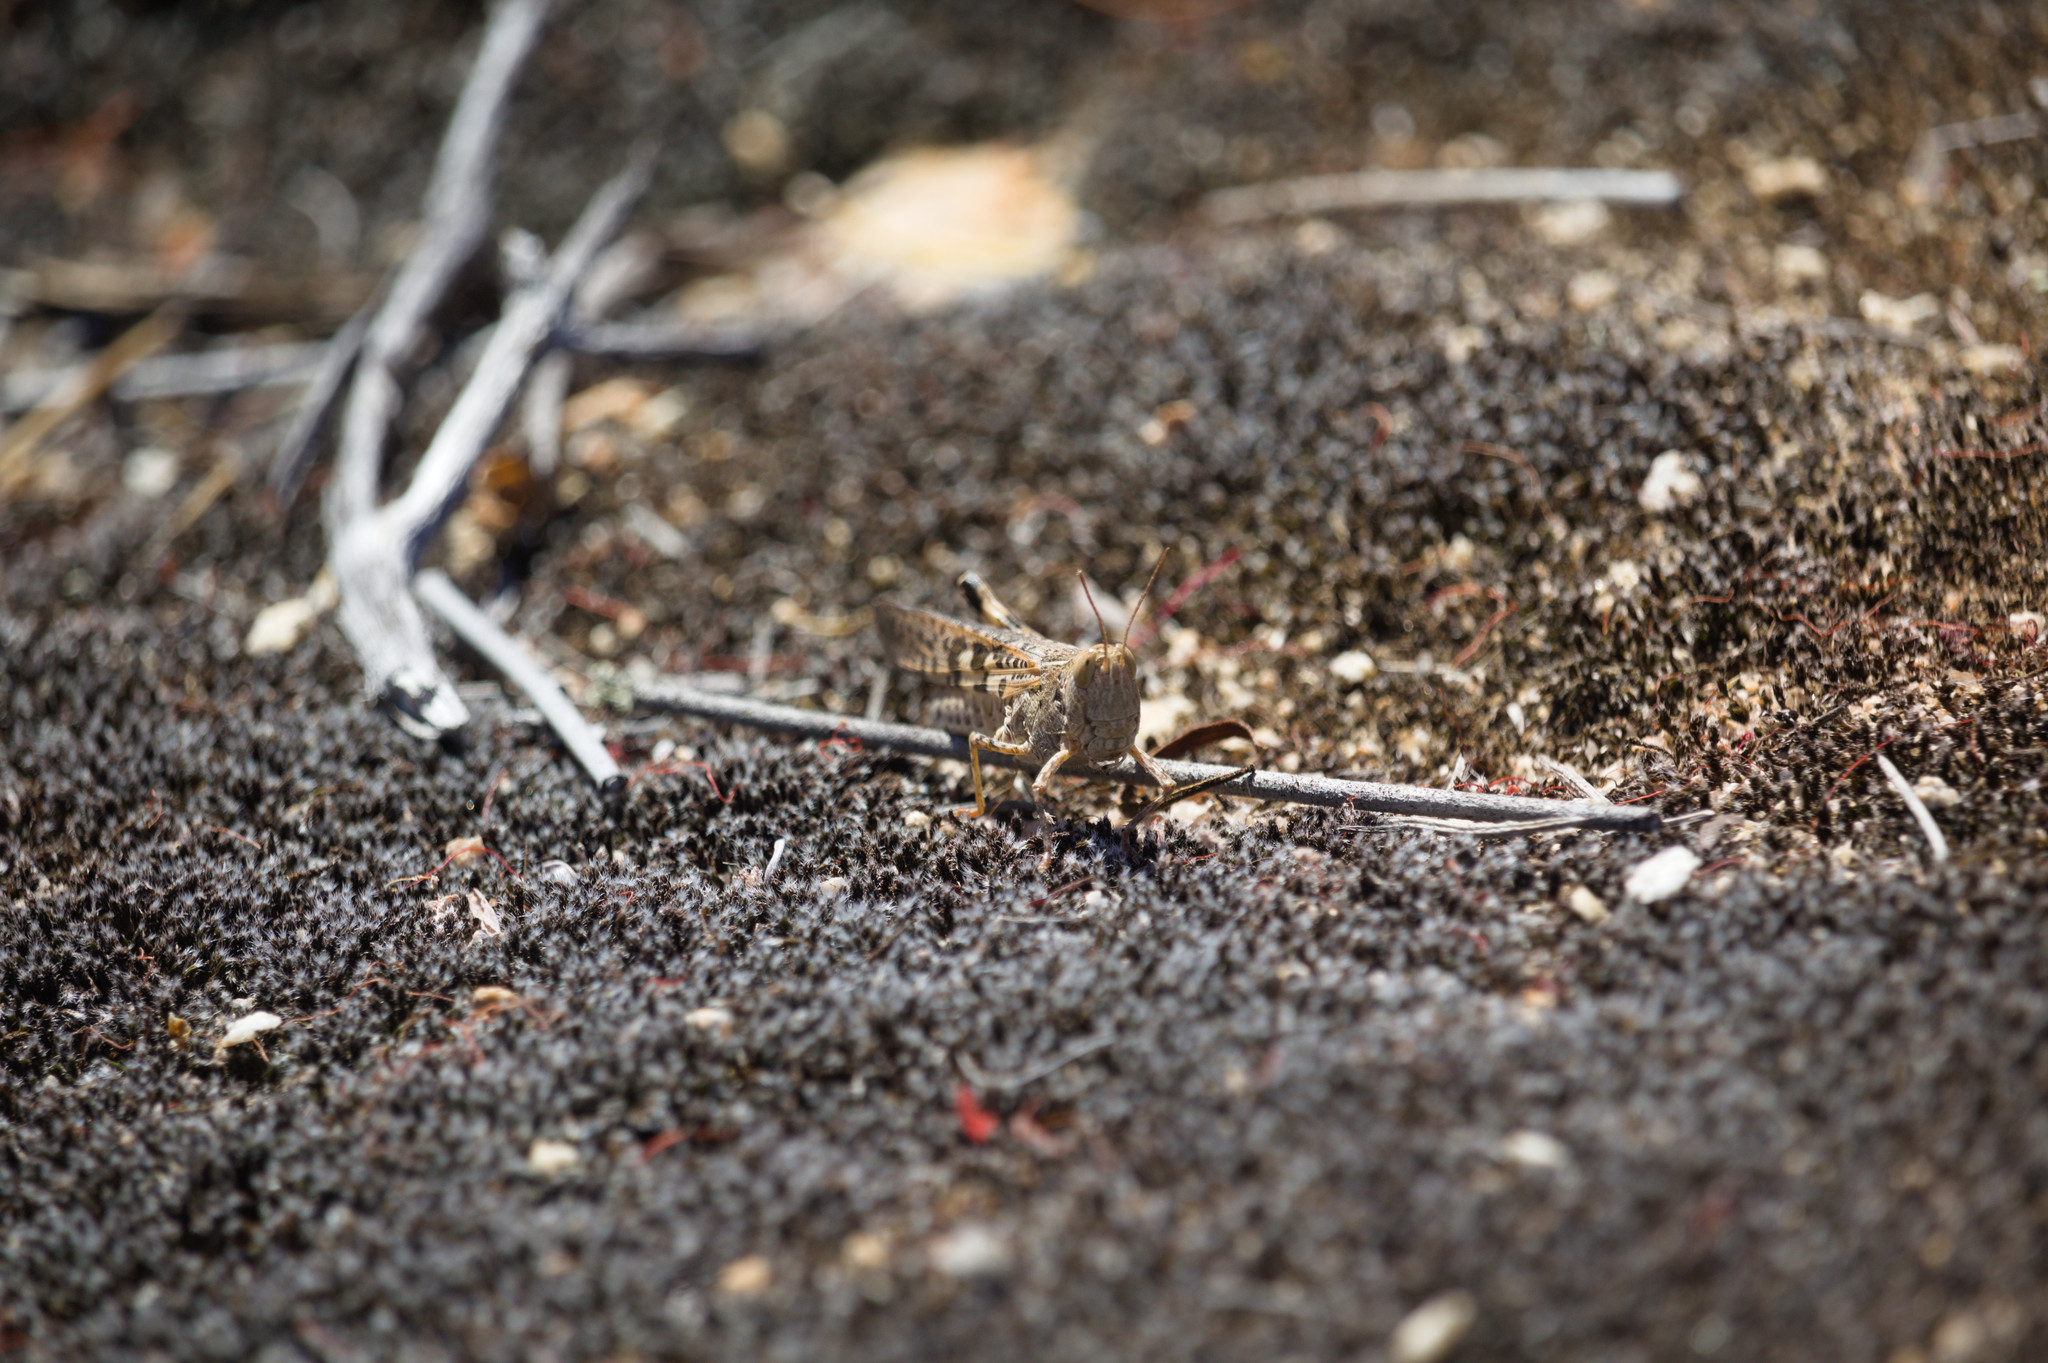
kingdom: Animalia
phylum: Arthropoda
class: Insecta
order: Orthoptera
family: Acrididae
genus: Chortoicetes
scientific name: Chortoicetes terminifera
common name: Australian plague locust
